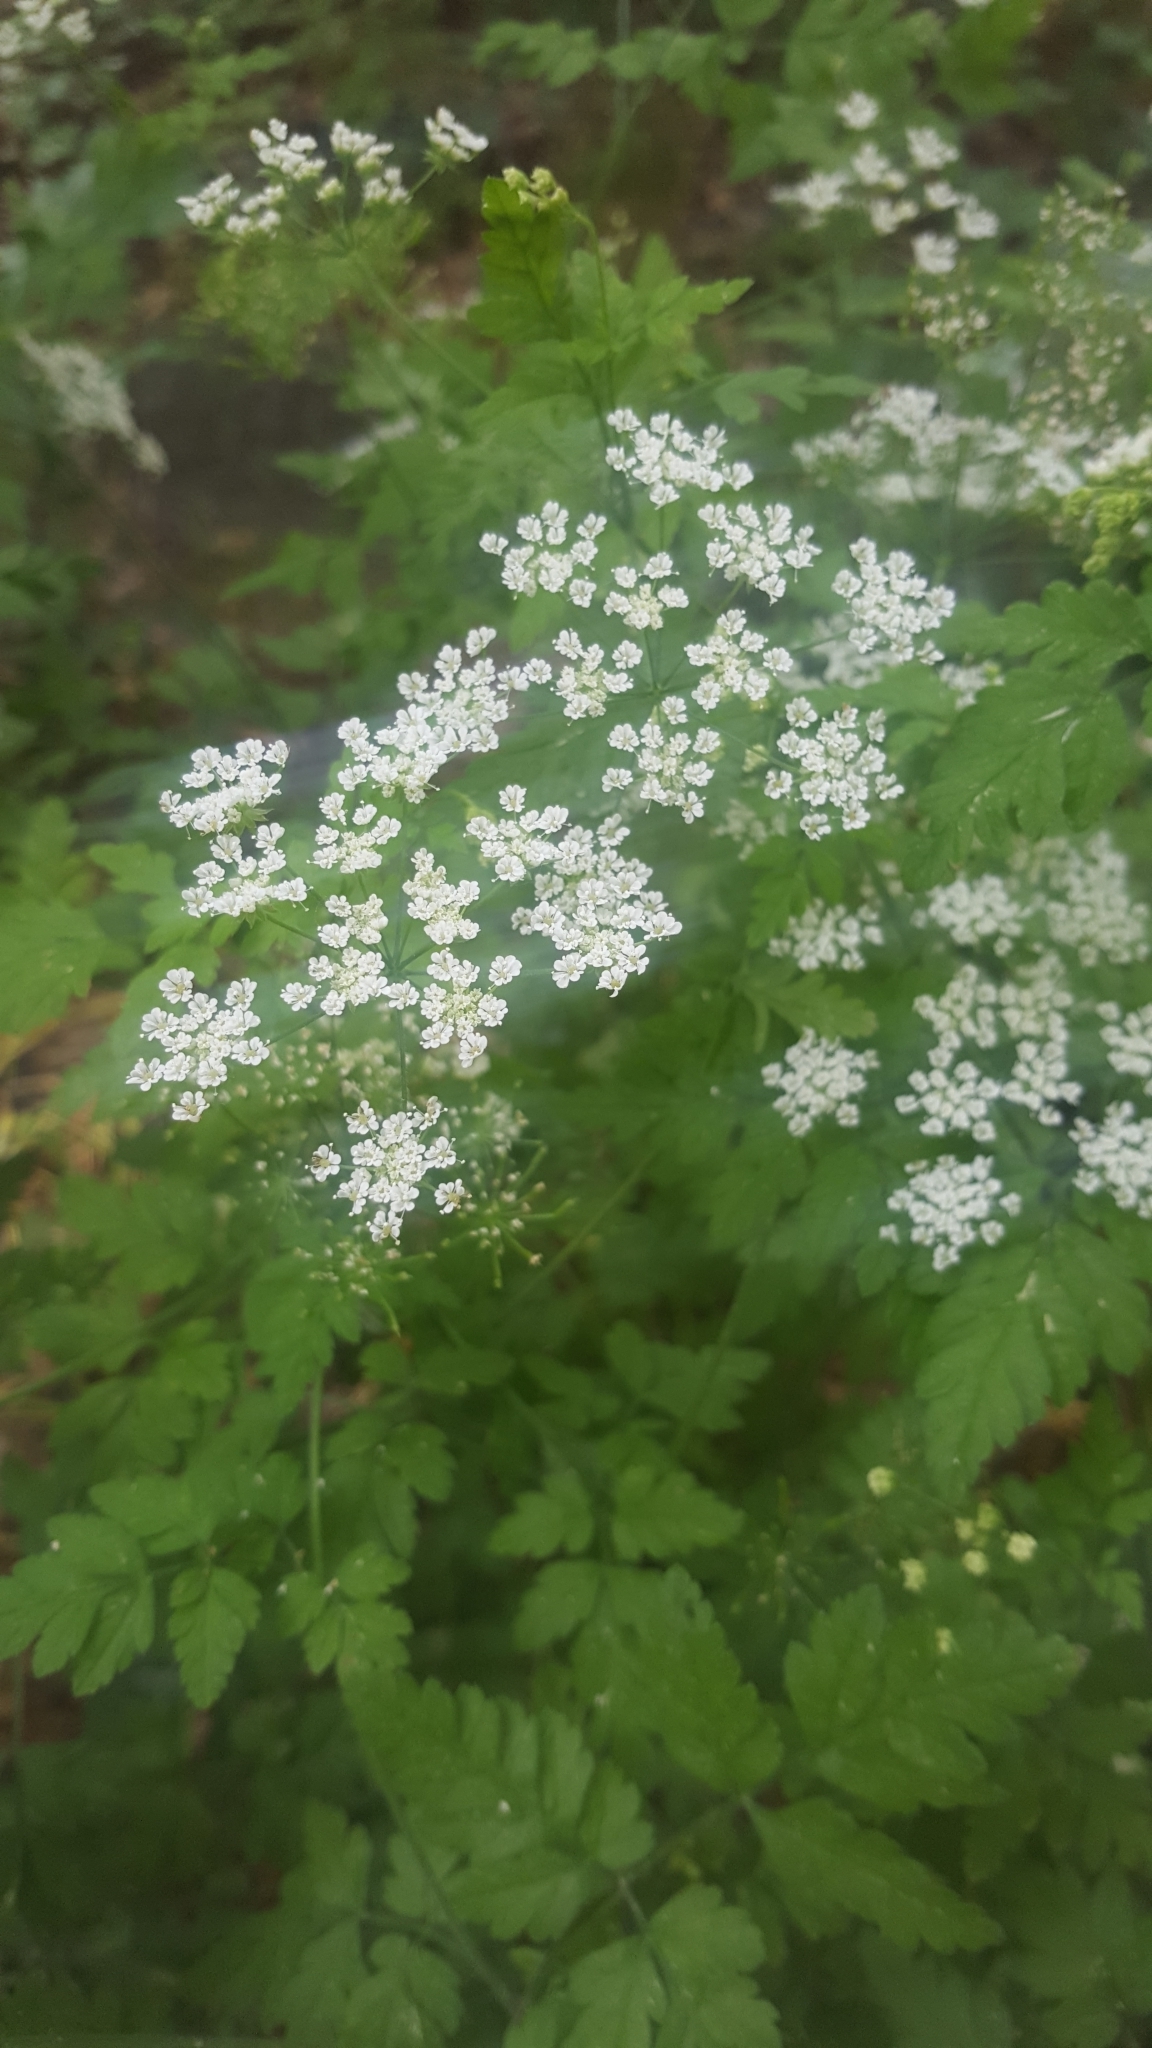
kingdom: Plantae
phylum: Tracheophyta
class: Magnoliopsida
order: Apiales
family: Apiaceae
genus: Chaerophyllum
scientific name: Chaerophyllum temulum
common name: Rough chervil
